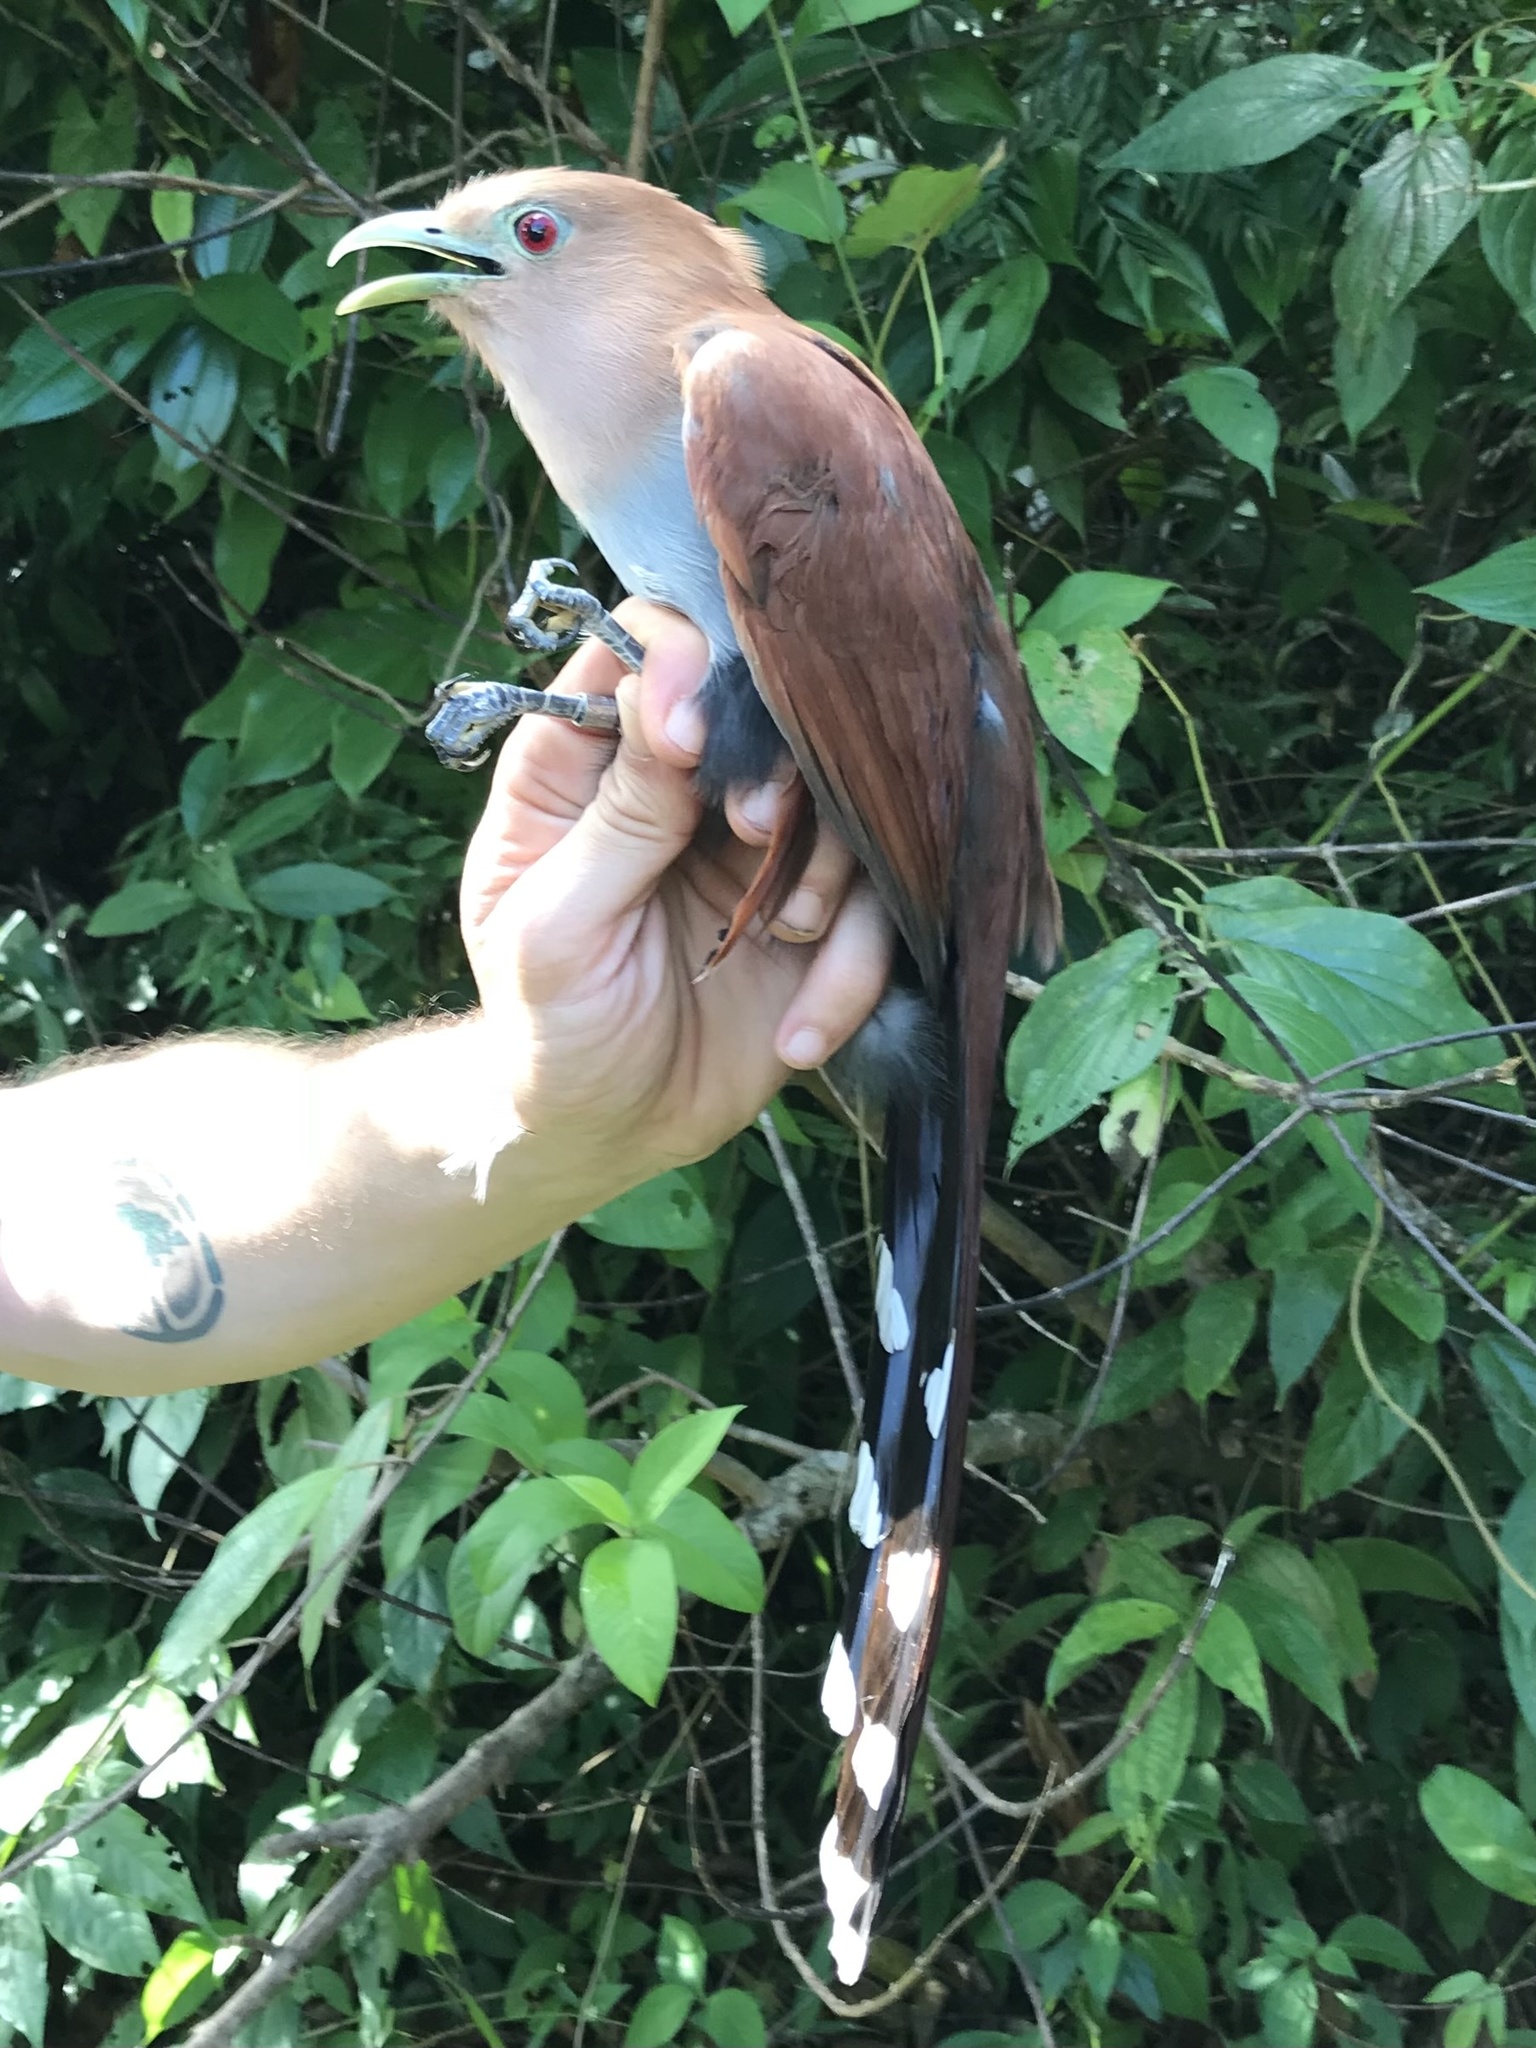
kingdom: Animalia
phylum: Chordata
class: Aves
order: Cuculiformes
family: Cuculidae
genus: Piaya
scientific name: Piaya cayana
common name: Squirrel cuckoo
